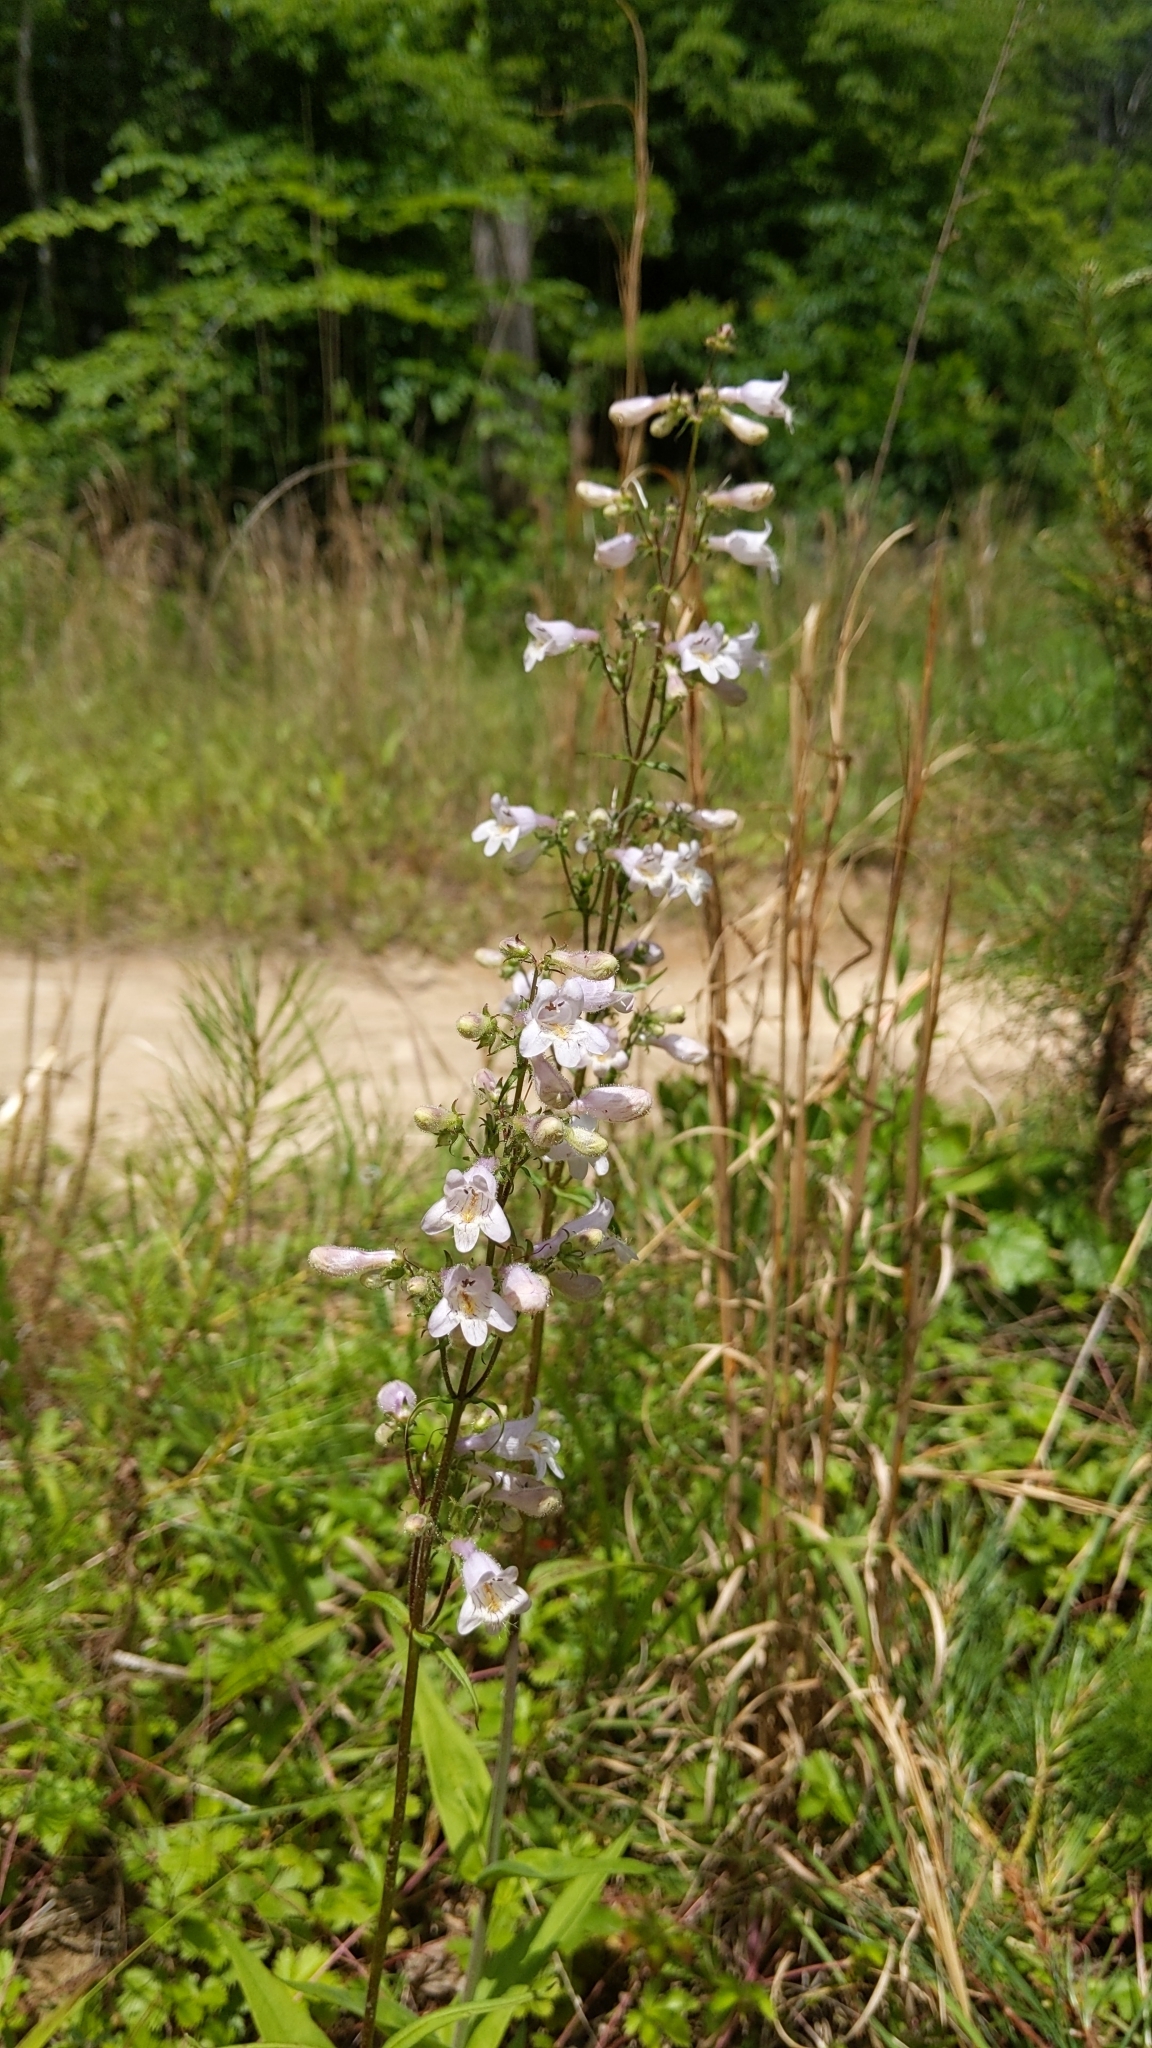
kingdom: Plantae
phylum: Tracheophyta
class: Magnoliopsida
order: Lamiales
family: Plantaginaceae
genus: Penstemon
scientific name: Penstemon laevigatus
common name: Eastern beardtongue
